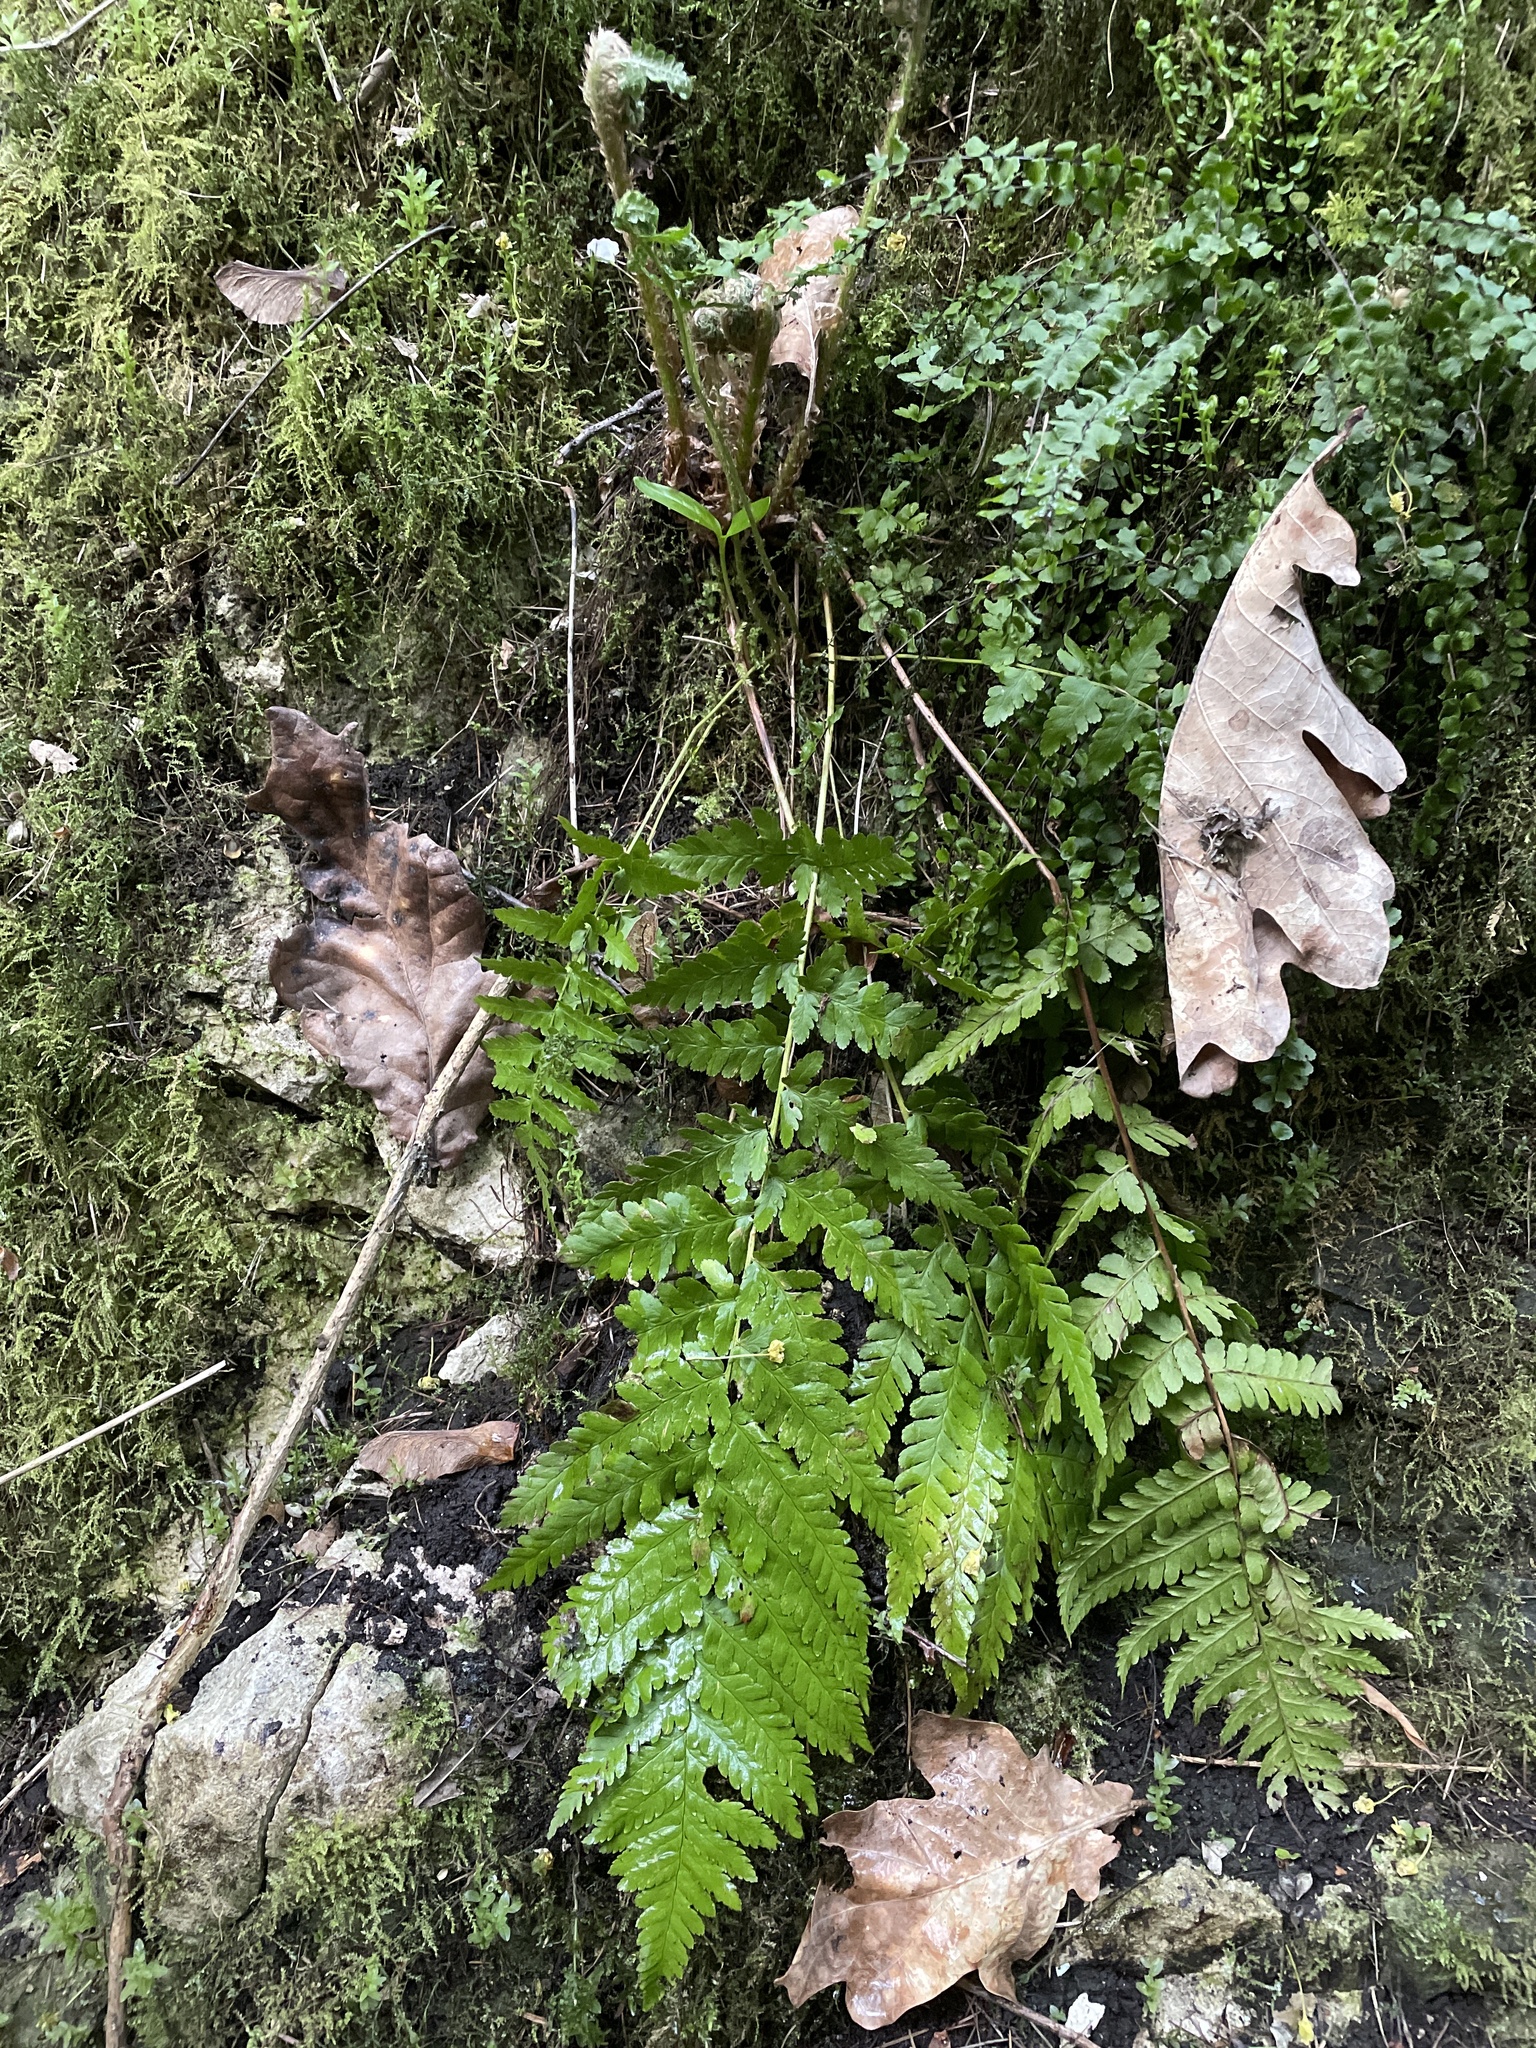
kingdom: Plantae
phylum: Tracheophyta
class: Polypodiopsida
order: Polypodiales
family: Dryopteridaceae
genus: Dryopteris
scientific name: Dryopteris filix-mas
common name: Male fern
